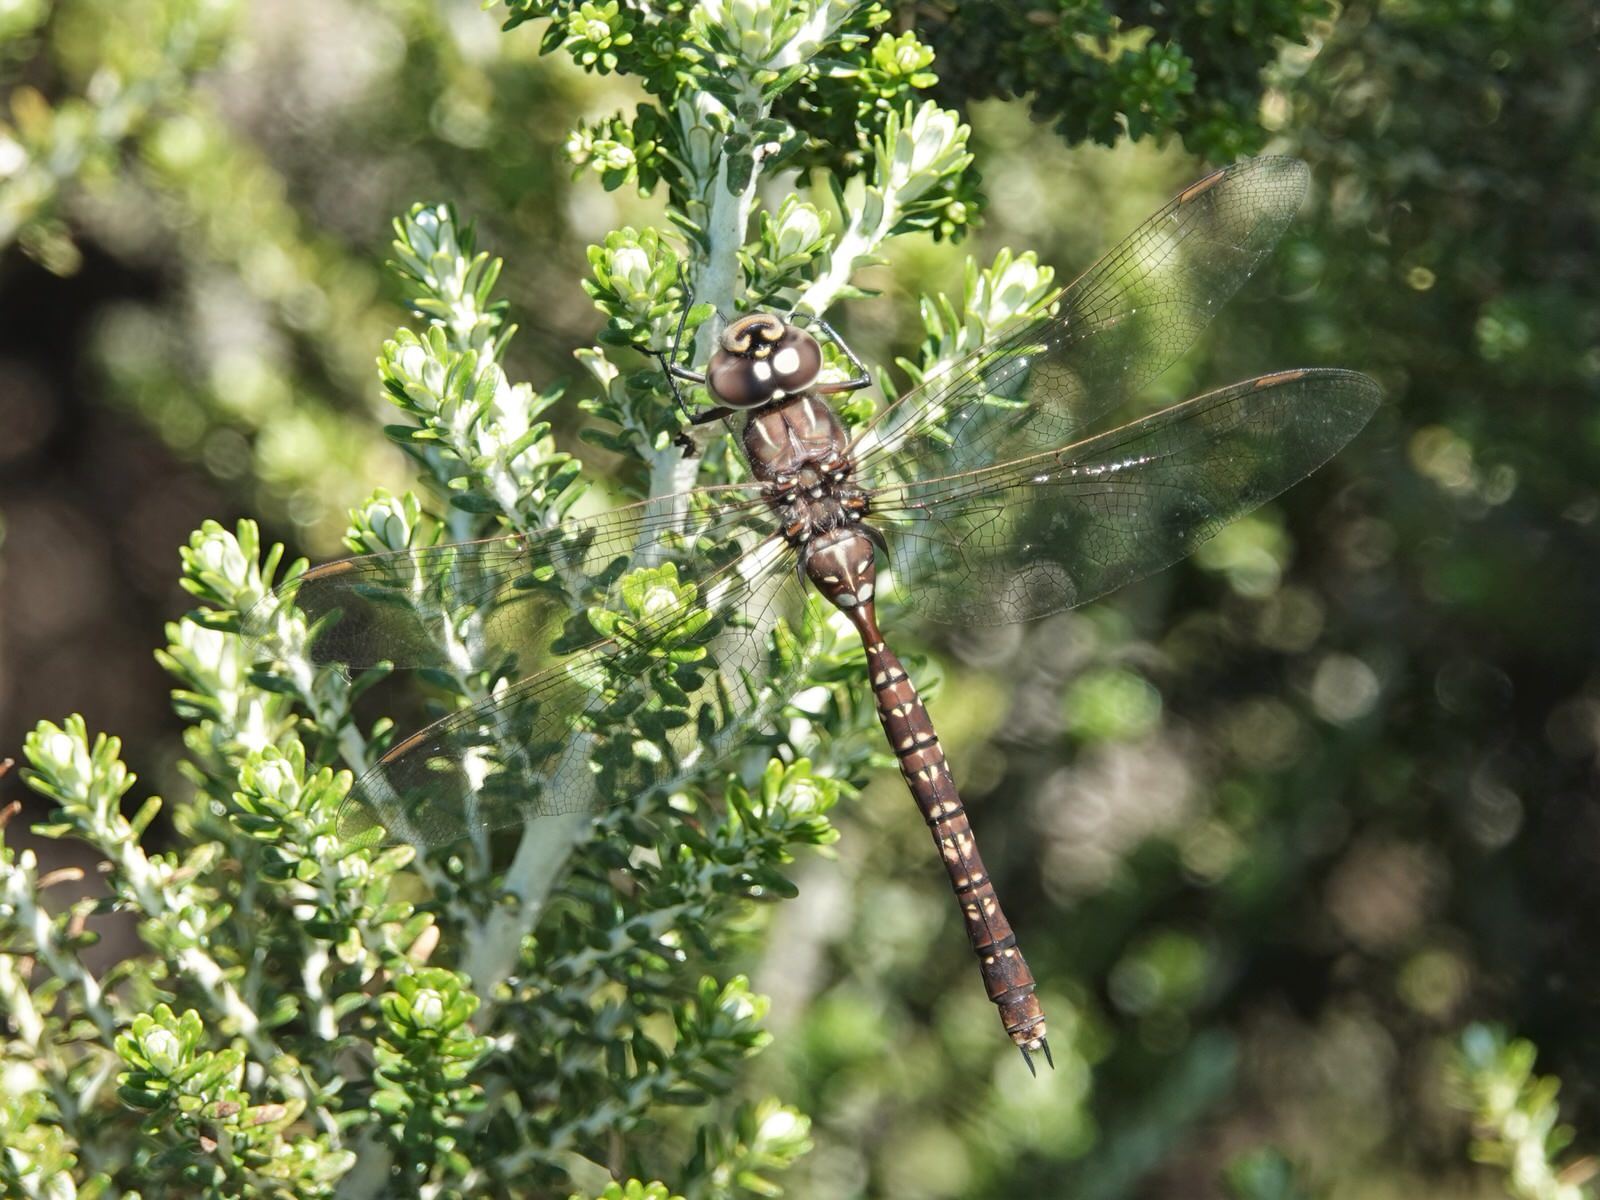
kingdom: Animalia
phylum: Arthropoda
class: Insecta
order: Odonata
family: Aeshnidae
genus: Aeshna
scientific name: Aeshna brevistyla
